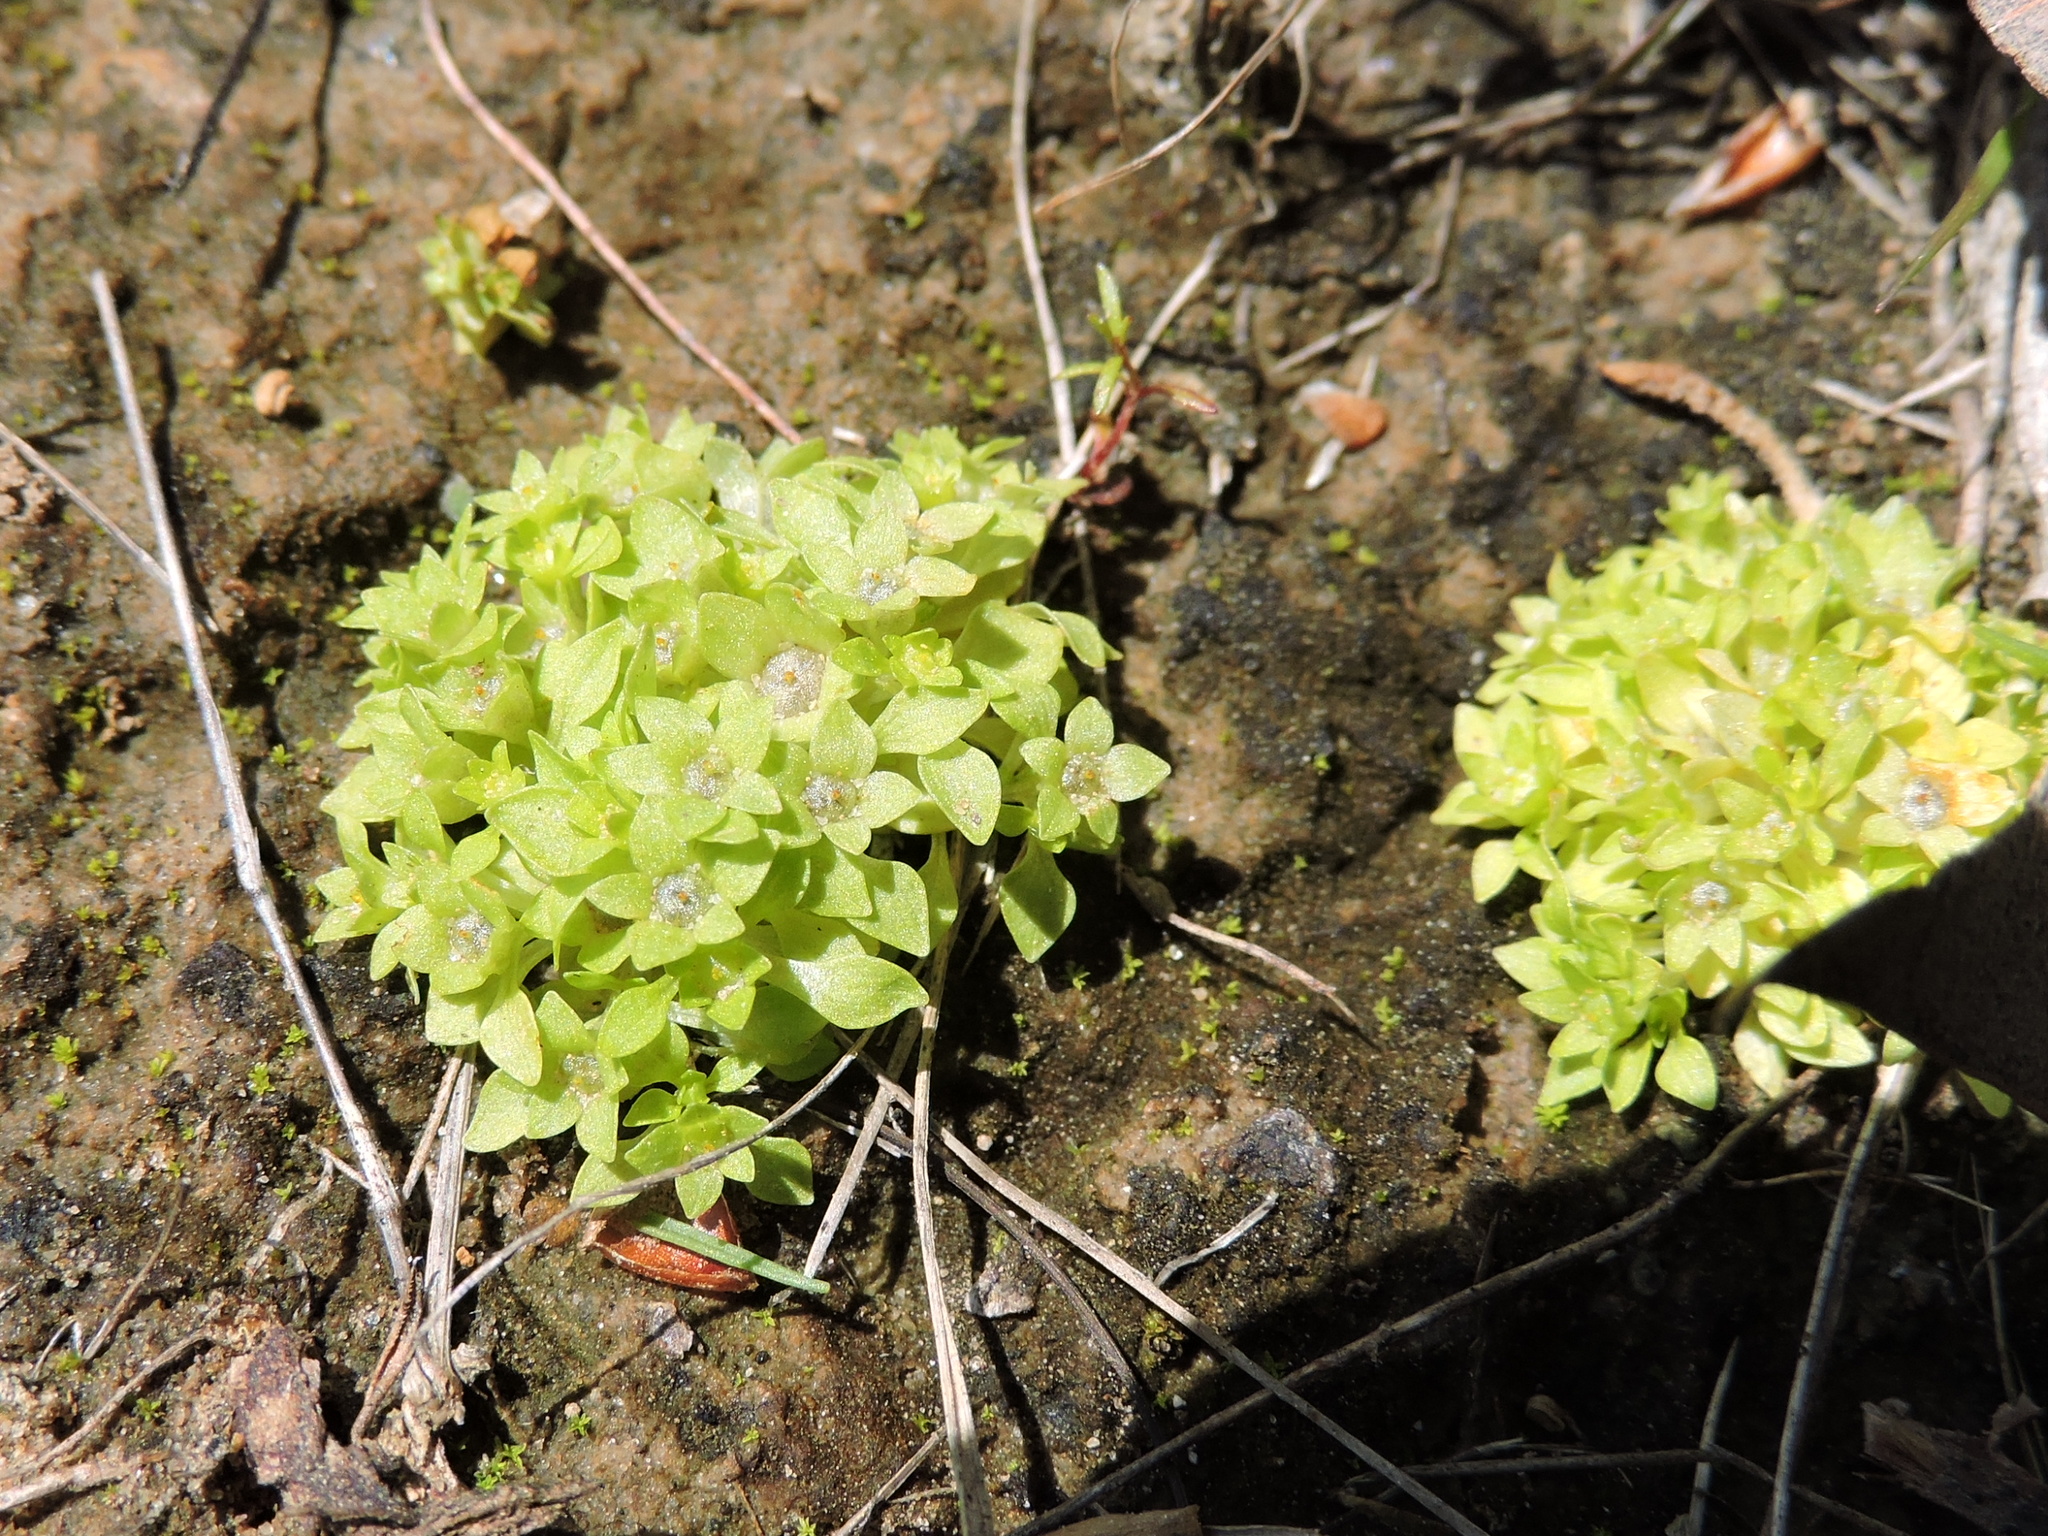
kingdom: Plantae
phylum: Tracheophyta
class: Magnoliopsida
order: Celastrales
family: Parnassiaceae
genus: Lepuropetalon
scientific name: Lepuropetalon spathulatum
